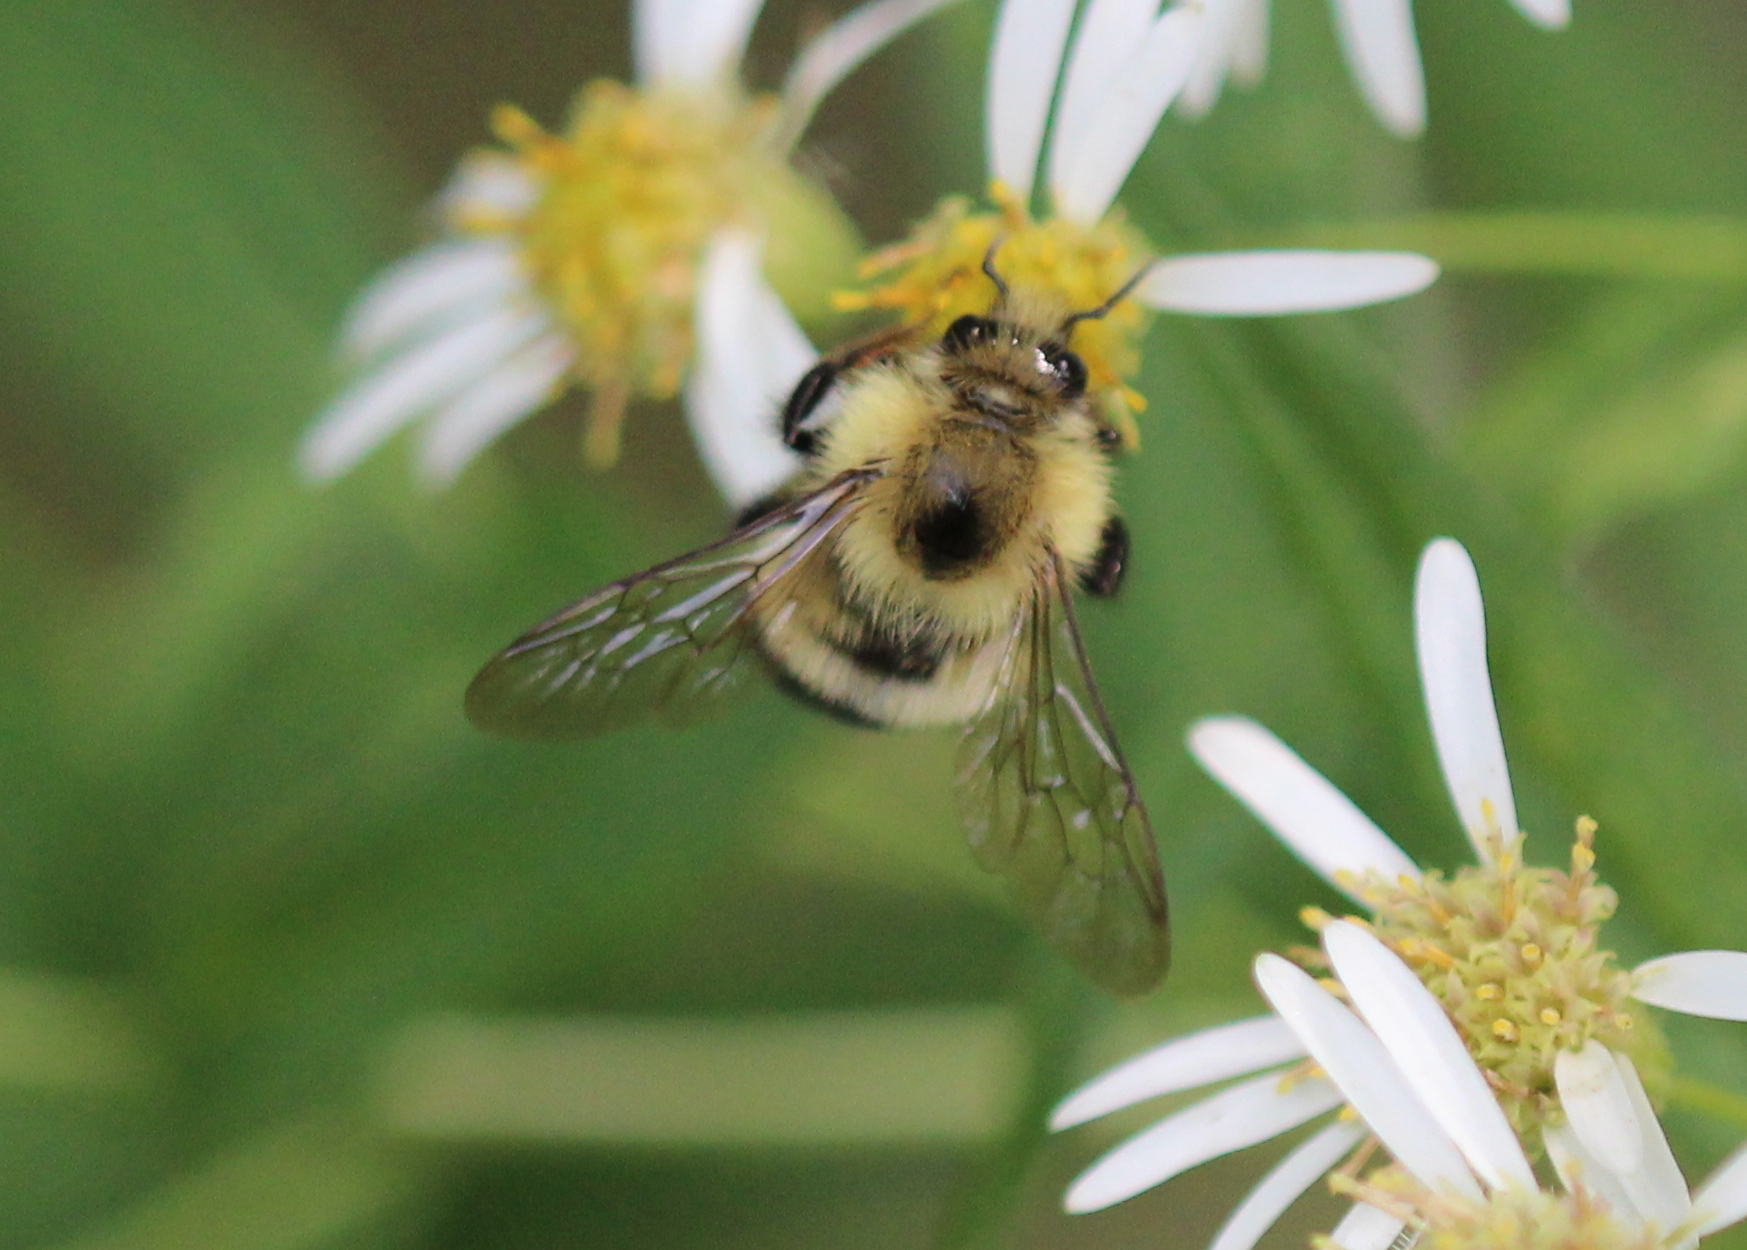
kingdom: Animalia
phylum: Arthropoda
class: Insecta
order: Hymenoptera
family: Apidae
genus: Bombus
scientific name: Bombus vagans
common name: Half-black bumble bee
